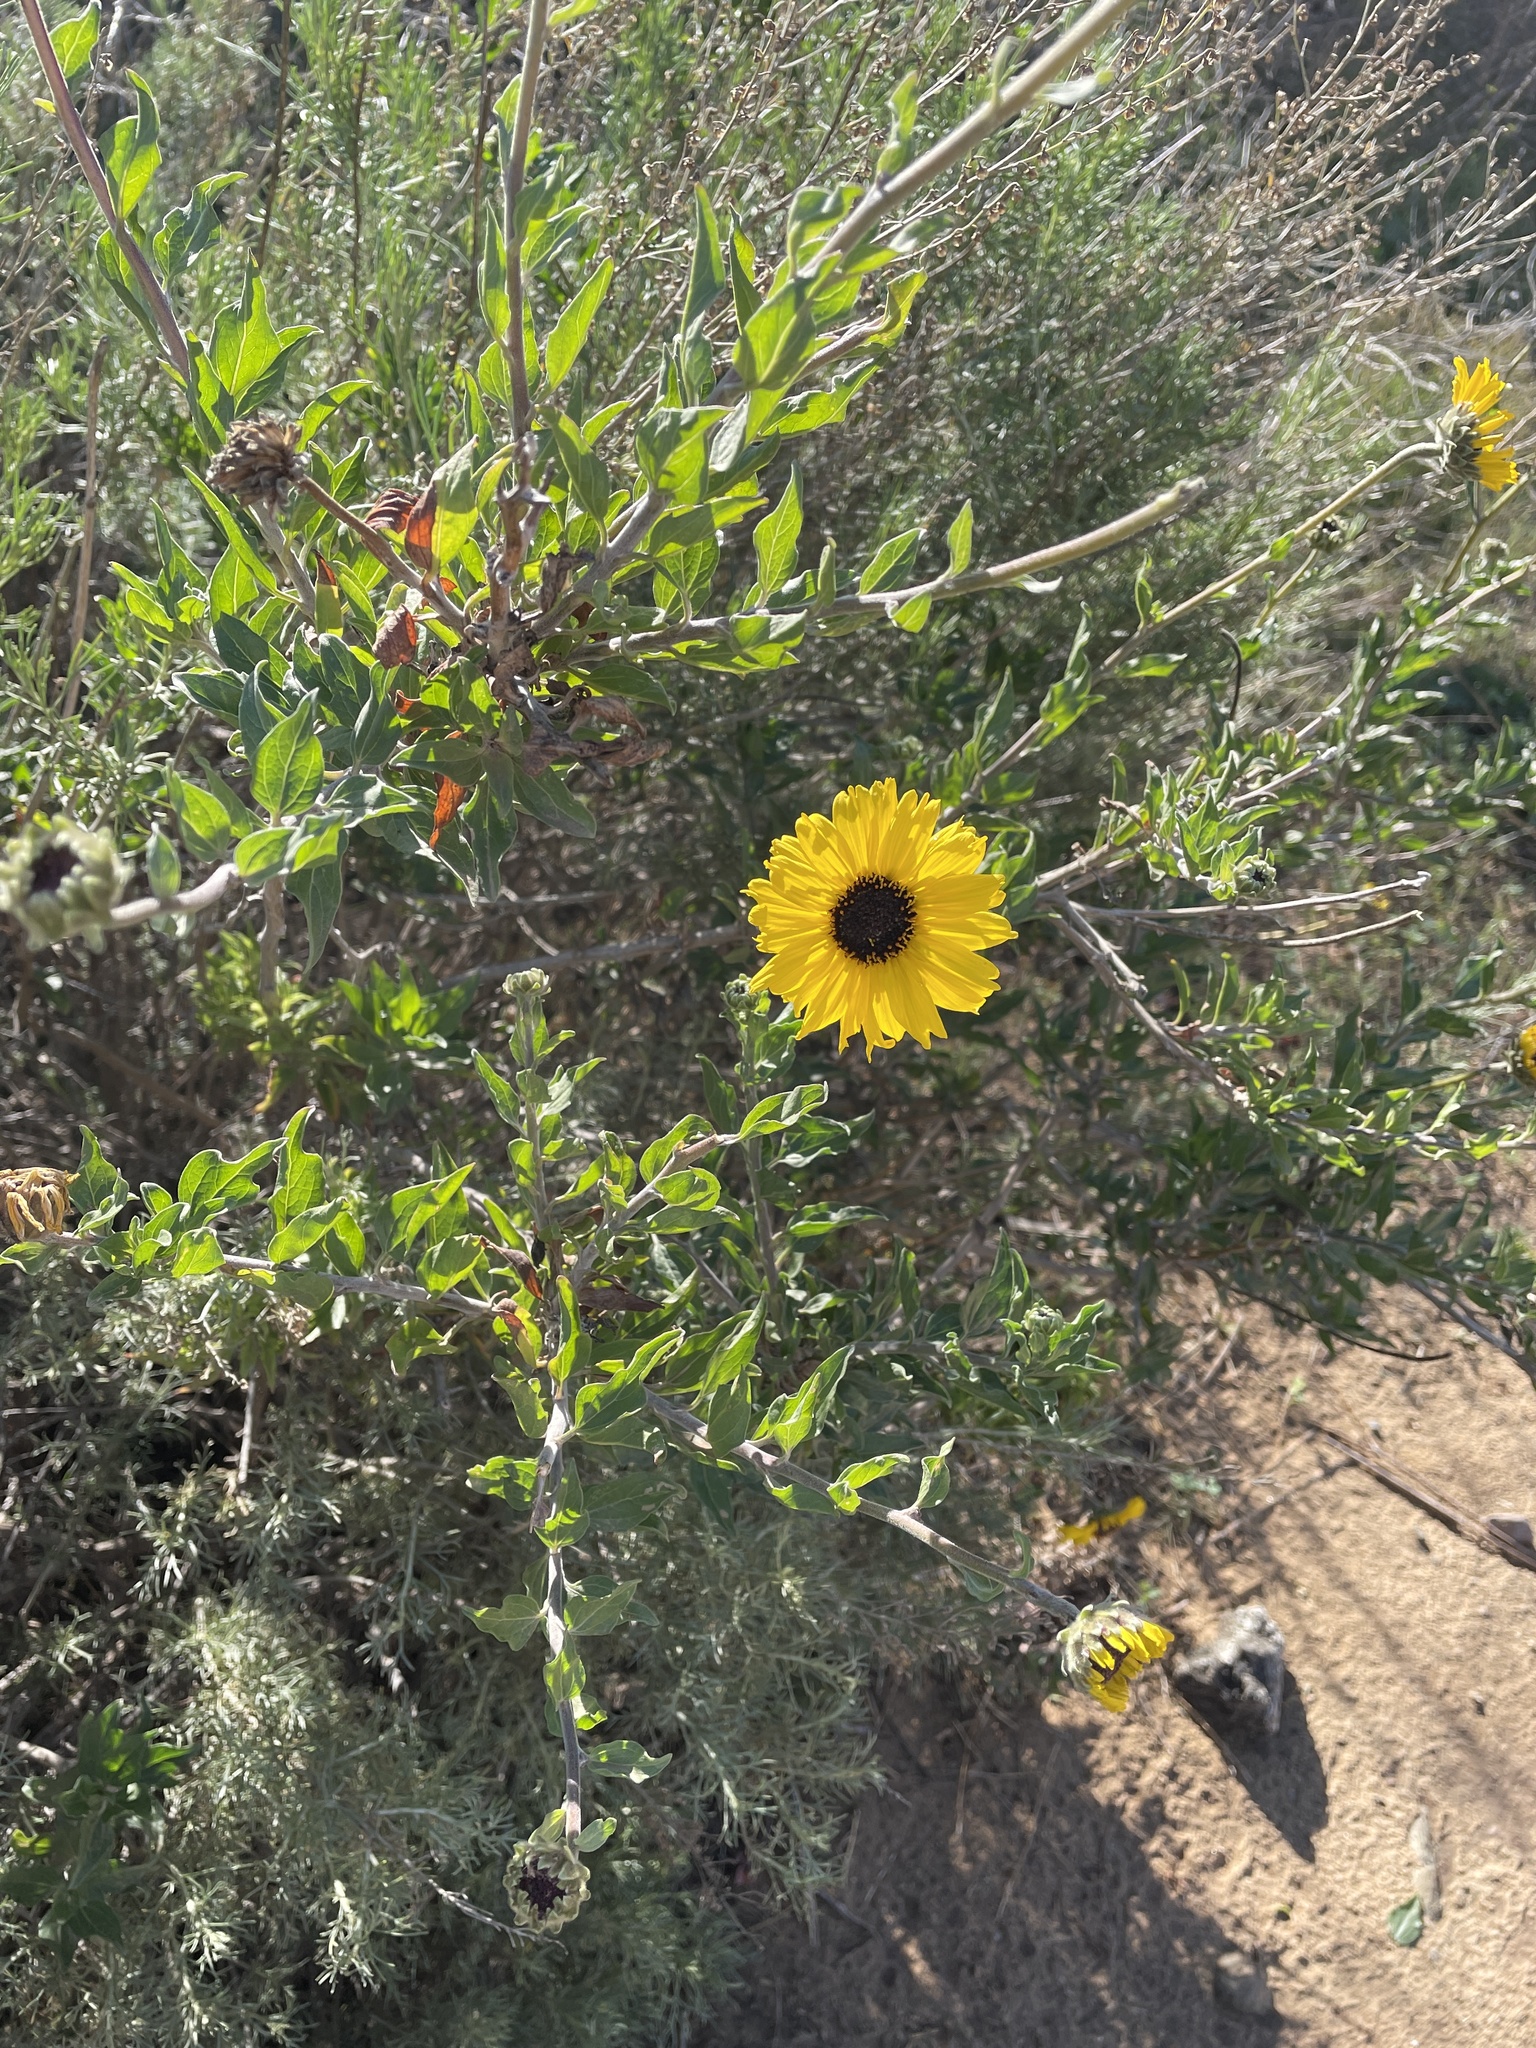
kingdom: Plantae
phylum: Tracheophyta
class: Magnoliopsida
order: Asterales
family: Asteraceae
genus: Encelia
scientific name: Encelia californica
